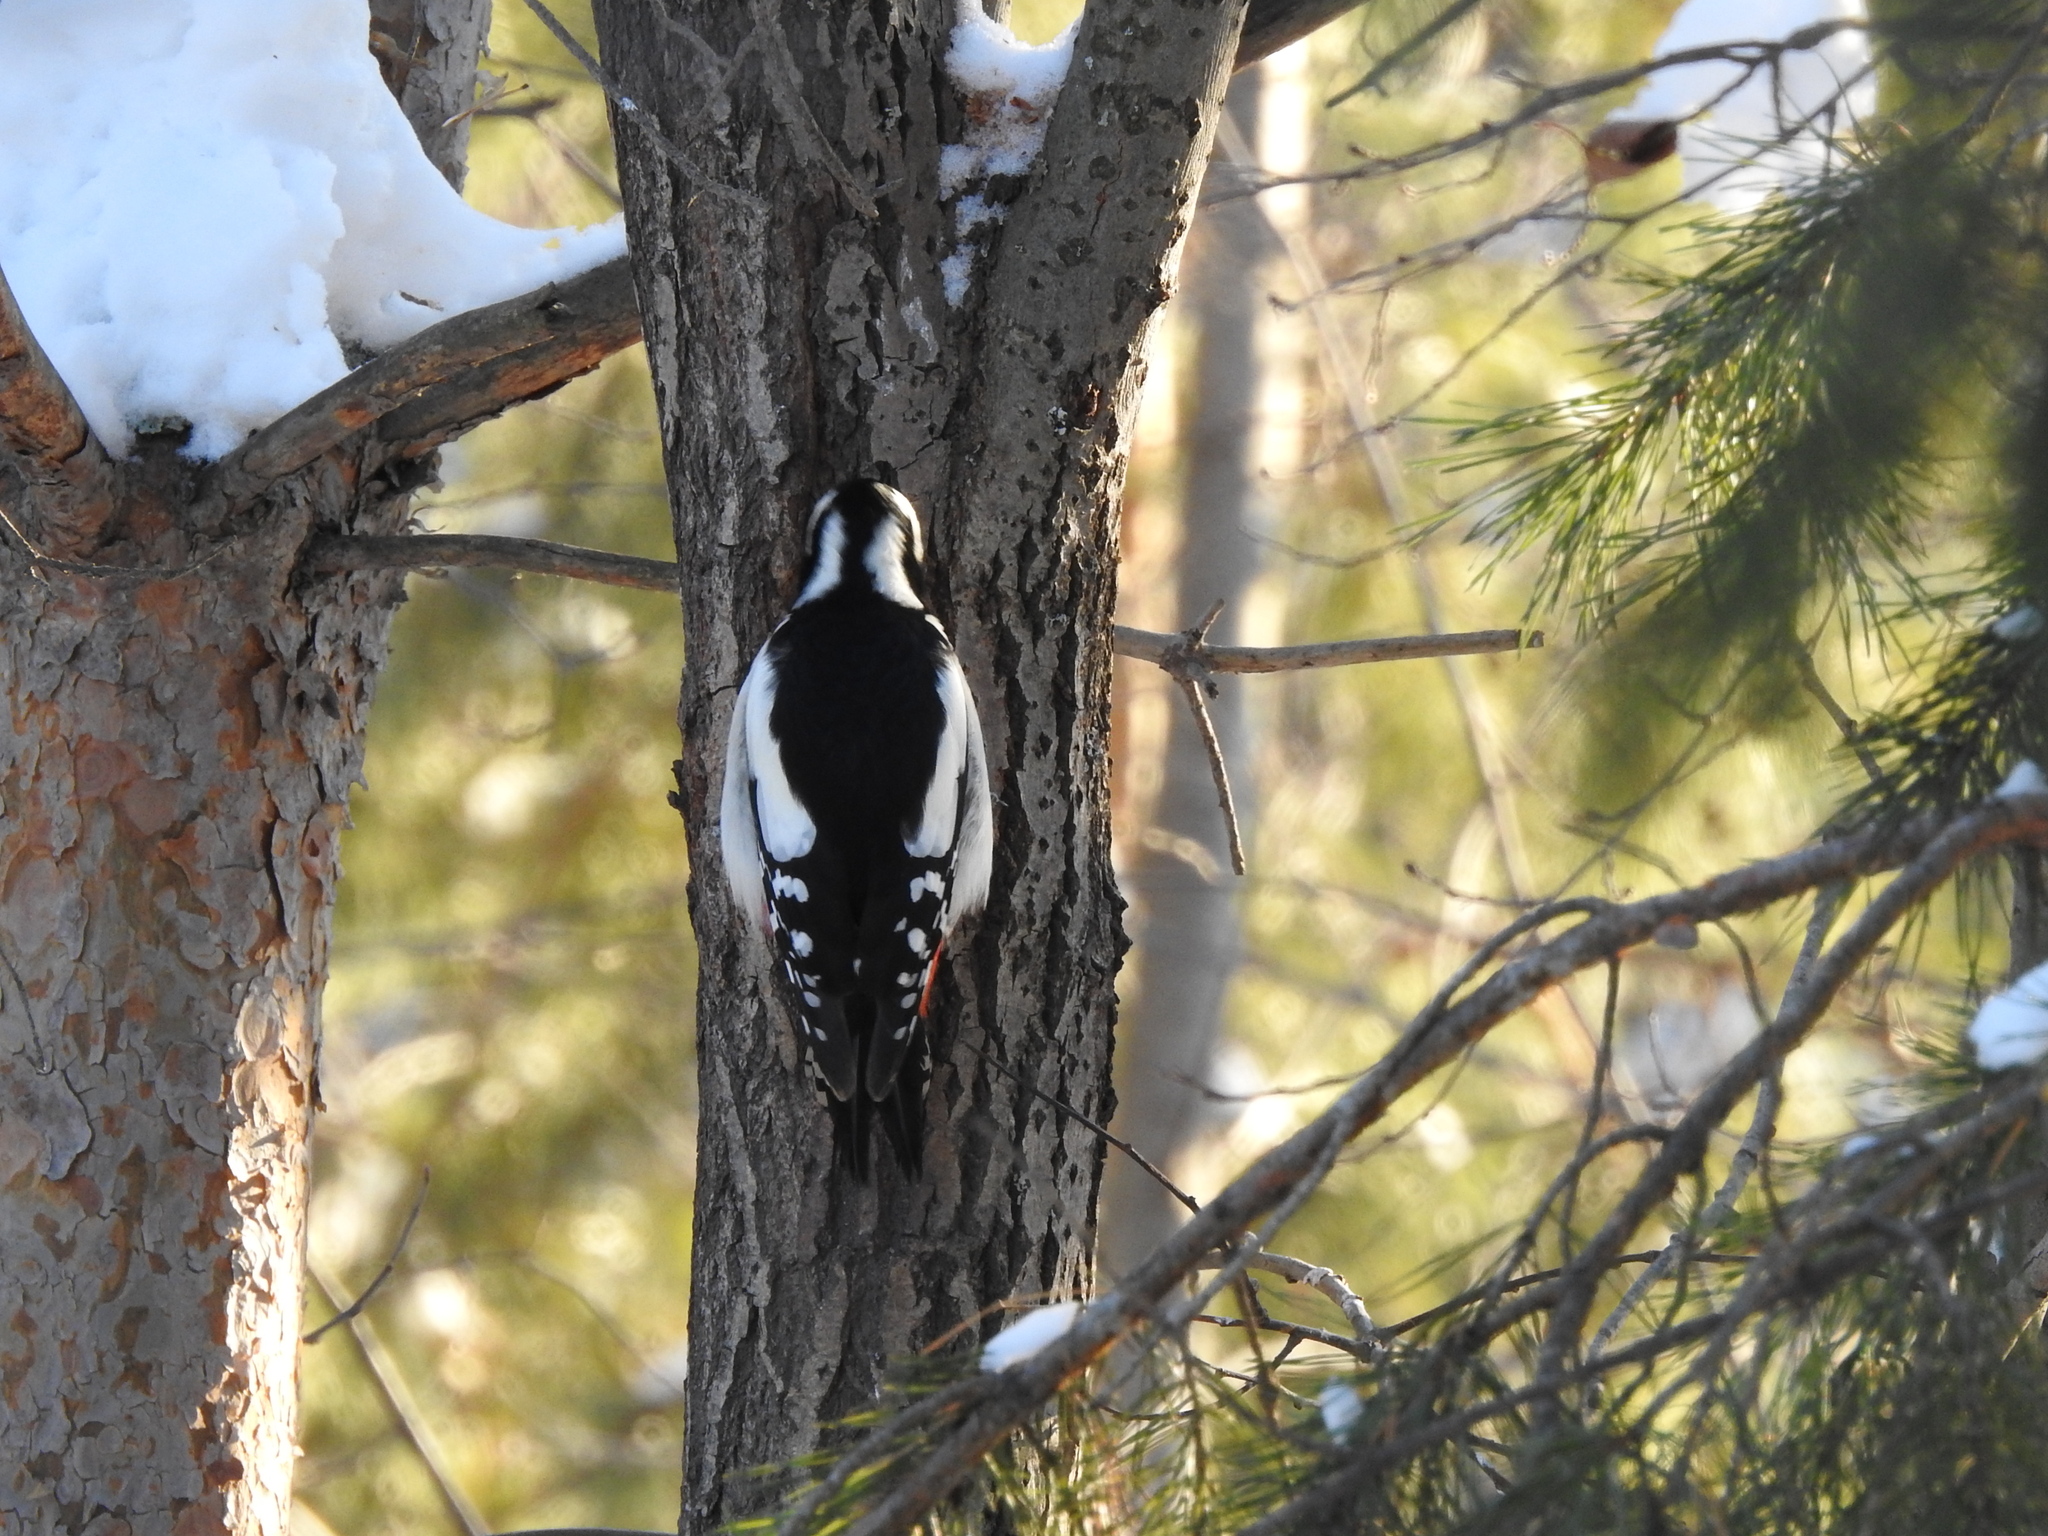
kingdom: Animalia
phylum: Chordata
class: Aves
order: Piciformes
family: Picidae
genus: Dendrocopos
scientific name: Dendrocopos major
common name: Great spotted woodpecker
